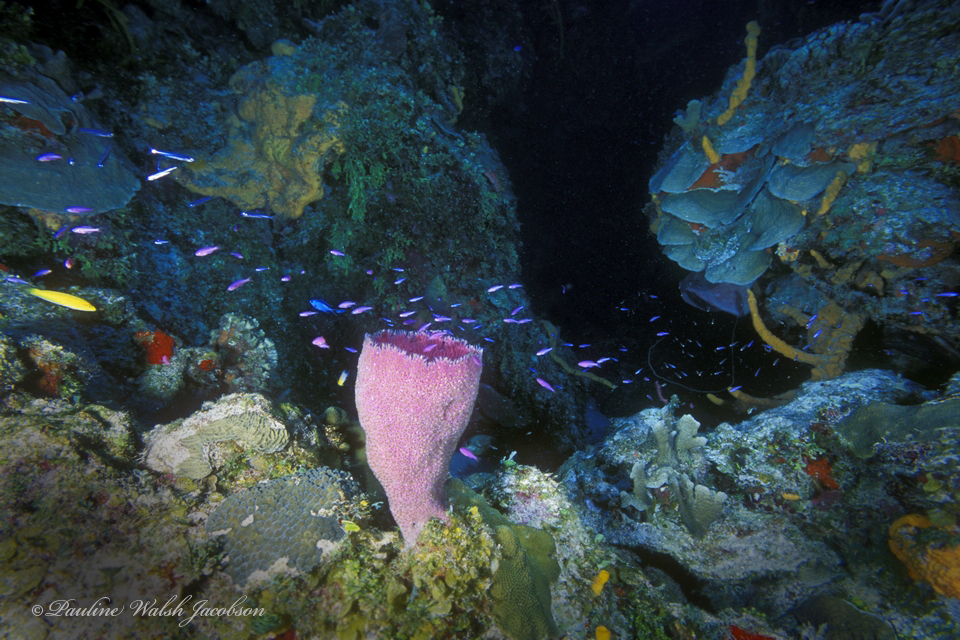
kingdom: Animalia
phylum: Porifera
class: Demospongiae
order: Haplosclerida
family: Niphatidae
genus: Niphates
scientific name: Niphates digitalis
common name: Pink vase sponge
